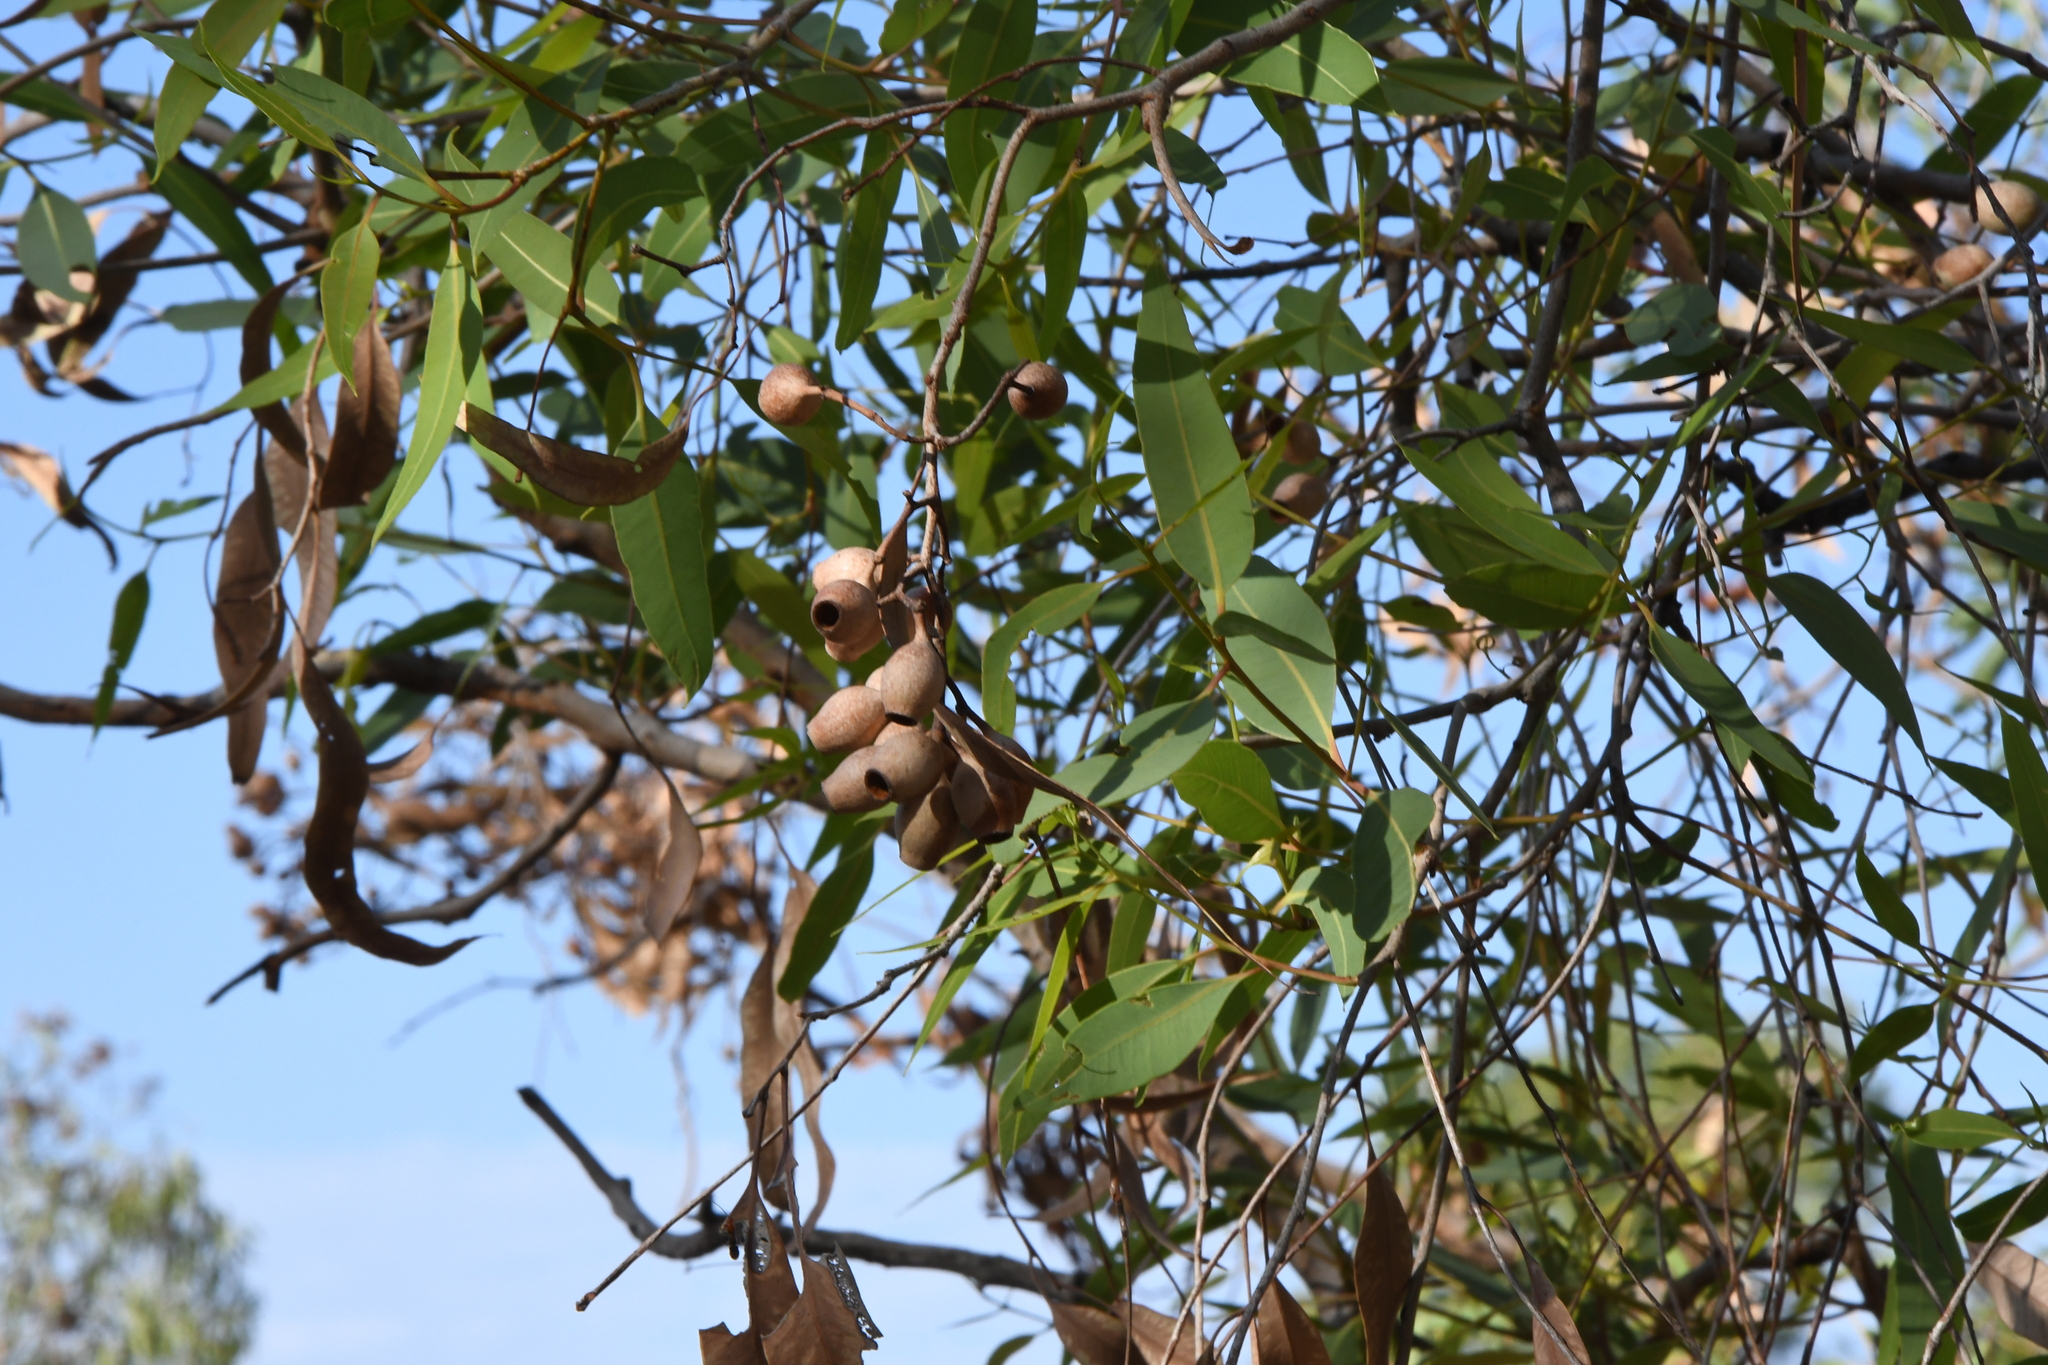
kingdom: Plantae
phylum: Tracheophyta
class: Magnoliopsida
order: Myrtales
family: Myrtaceae
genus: Corymbia
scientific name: Corymbia opaca
